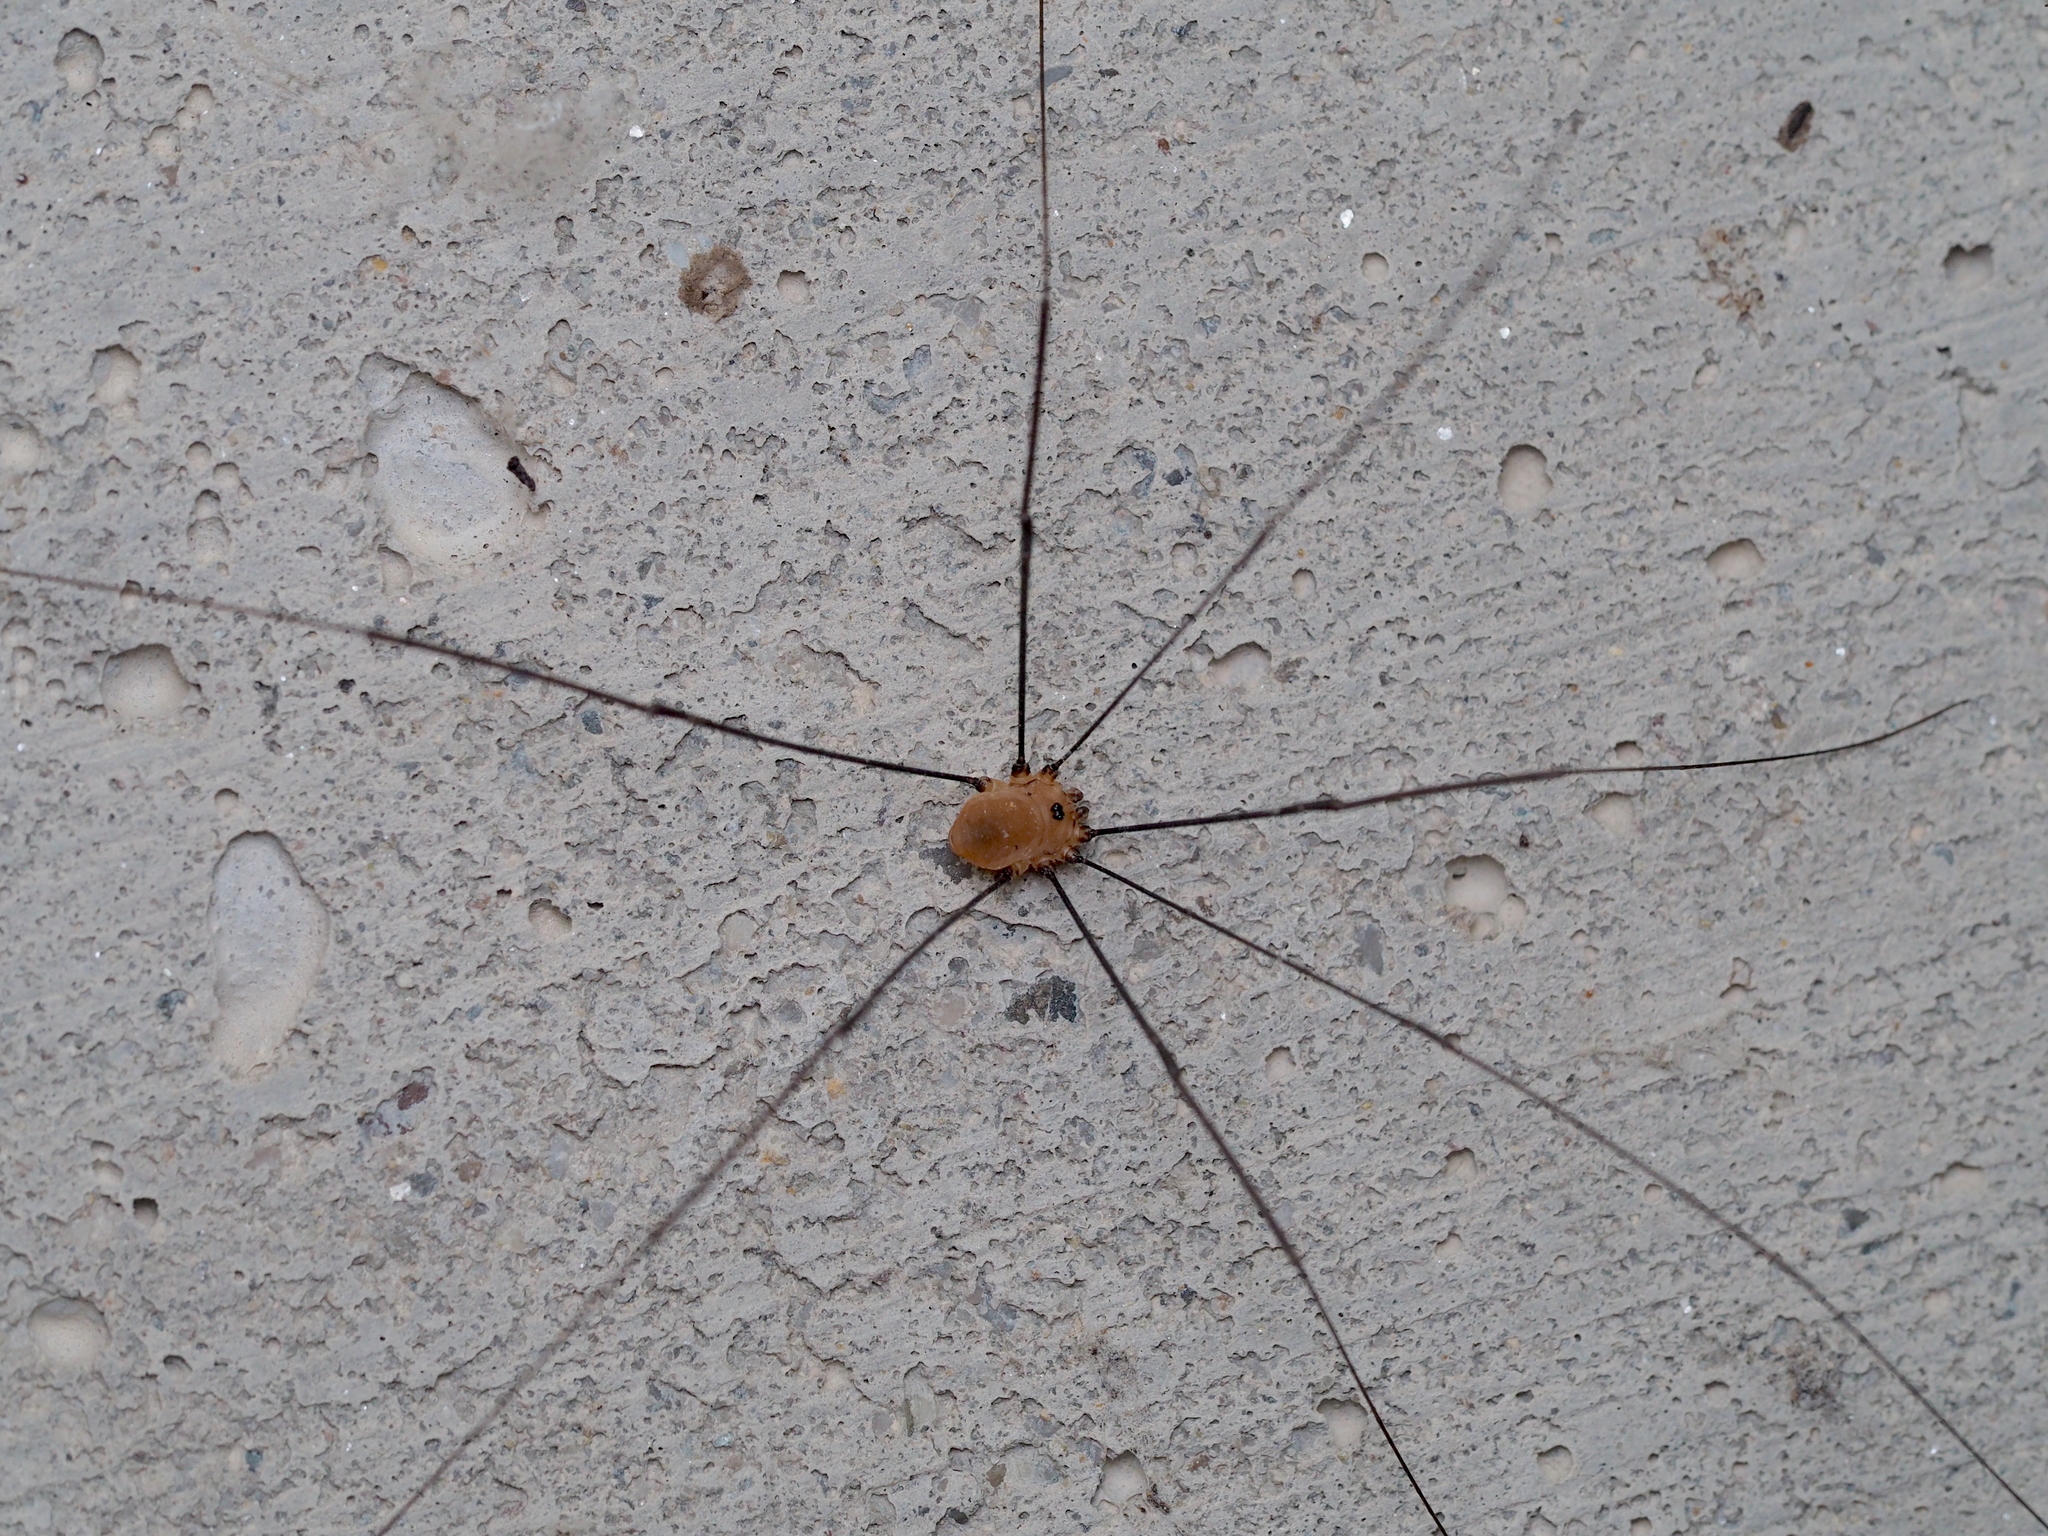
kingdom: Animalia
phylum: Arthropoda
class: Arachnida
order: Opiliones
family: Sclerosomatidae
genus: Leiobunum
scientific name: Leiobunum rotundum
